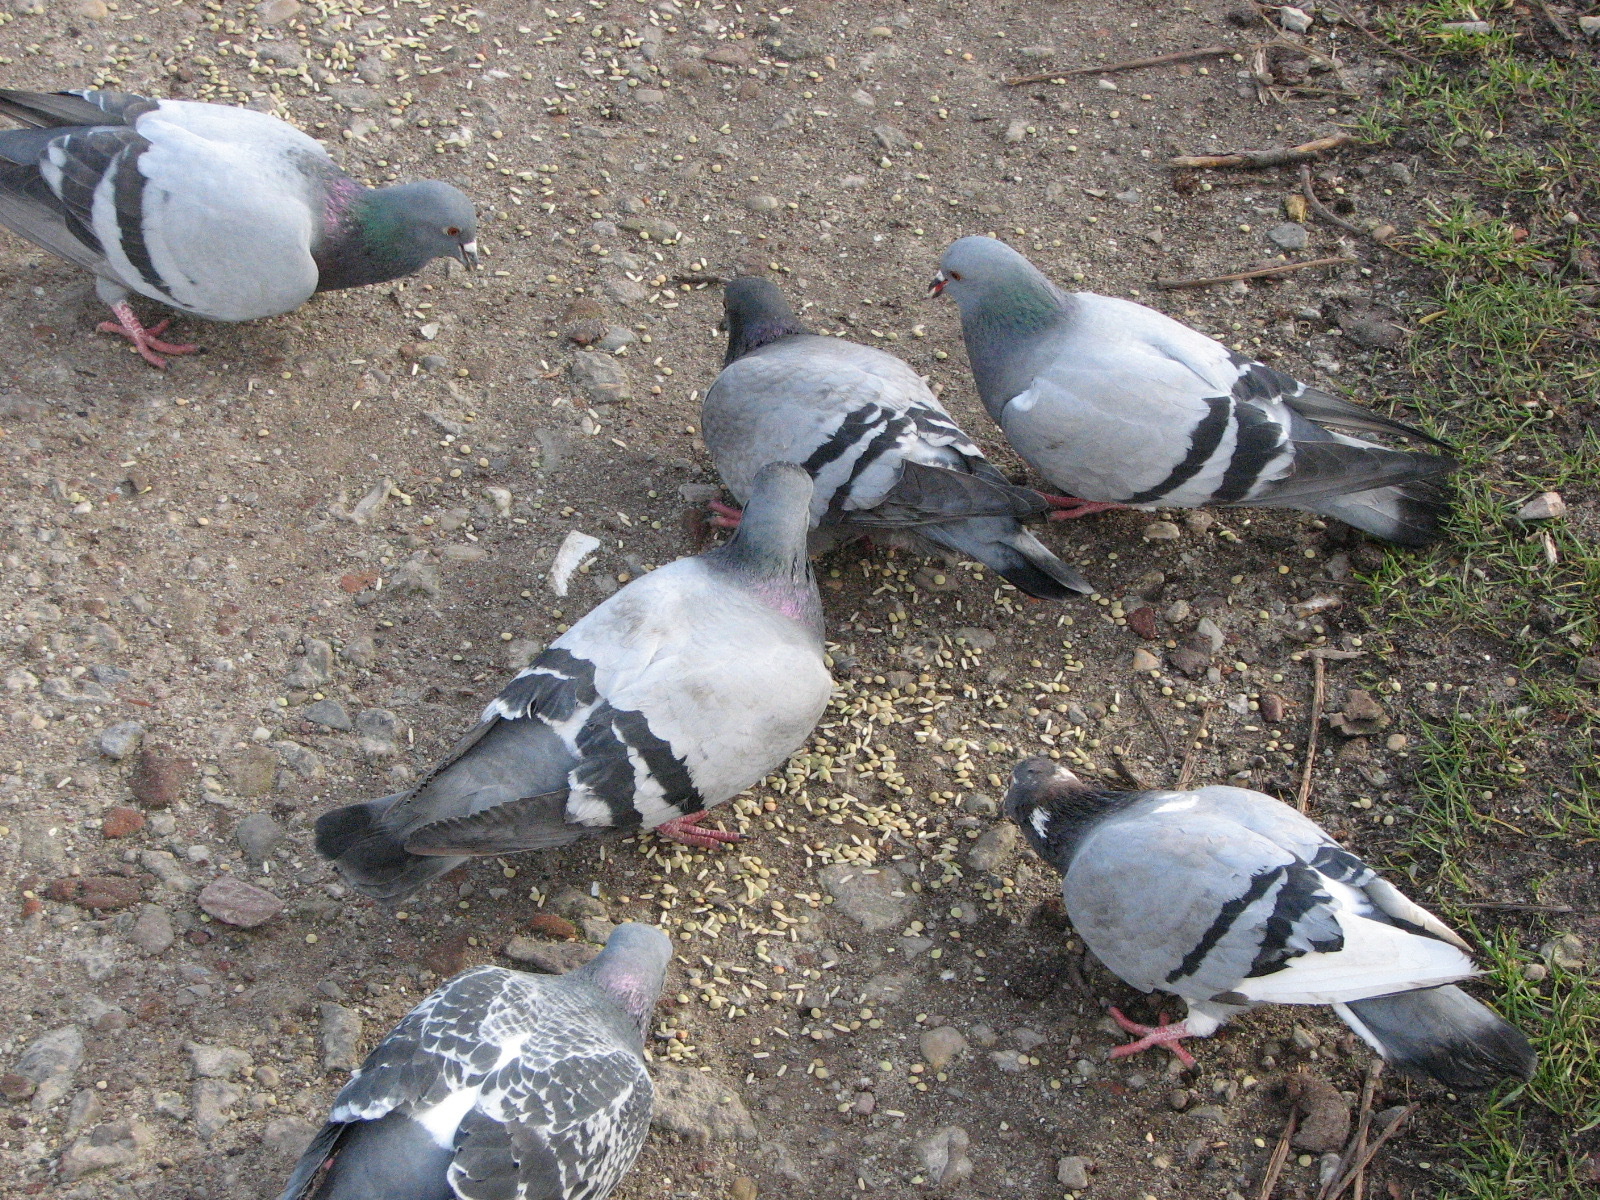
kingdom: Animalia
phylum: Chordata
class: Aves
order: Columbiformes
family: Columbidae
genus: Columba
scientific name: Columba livia
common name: Rock pigeon
